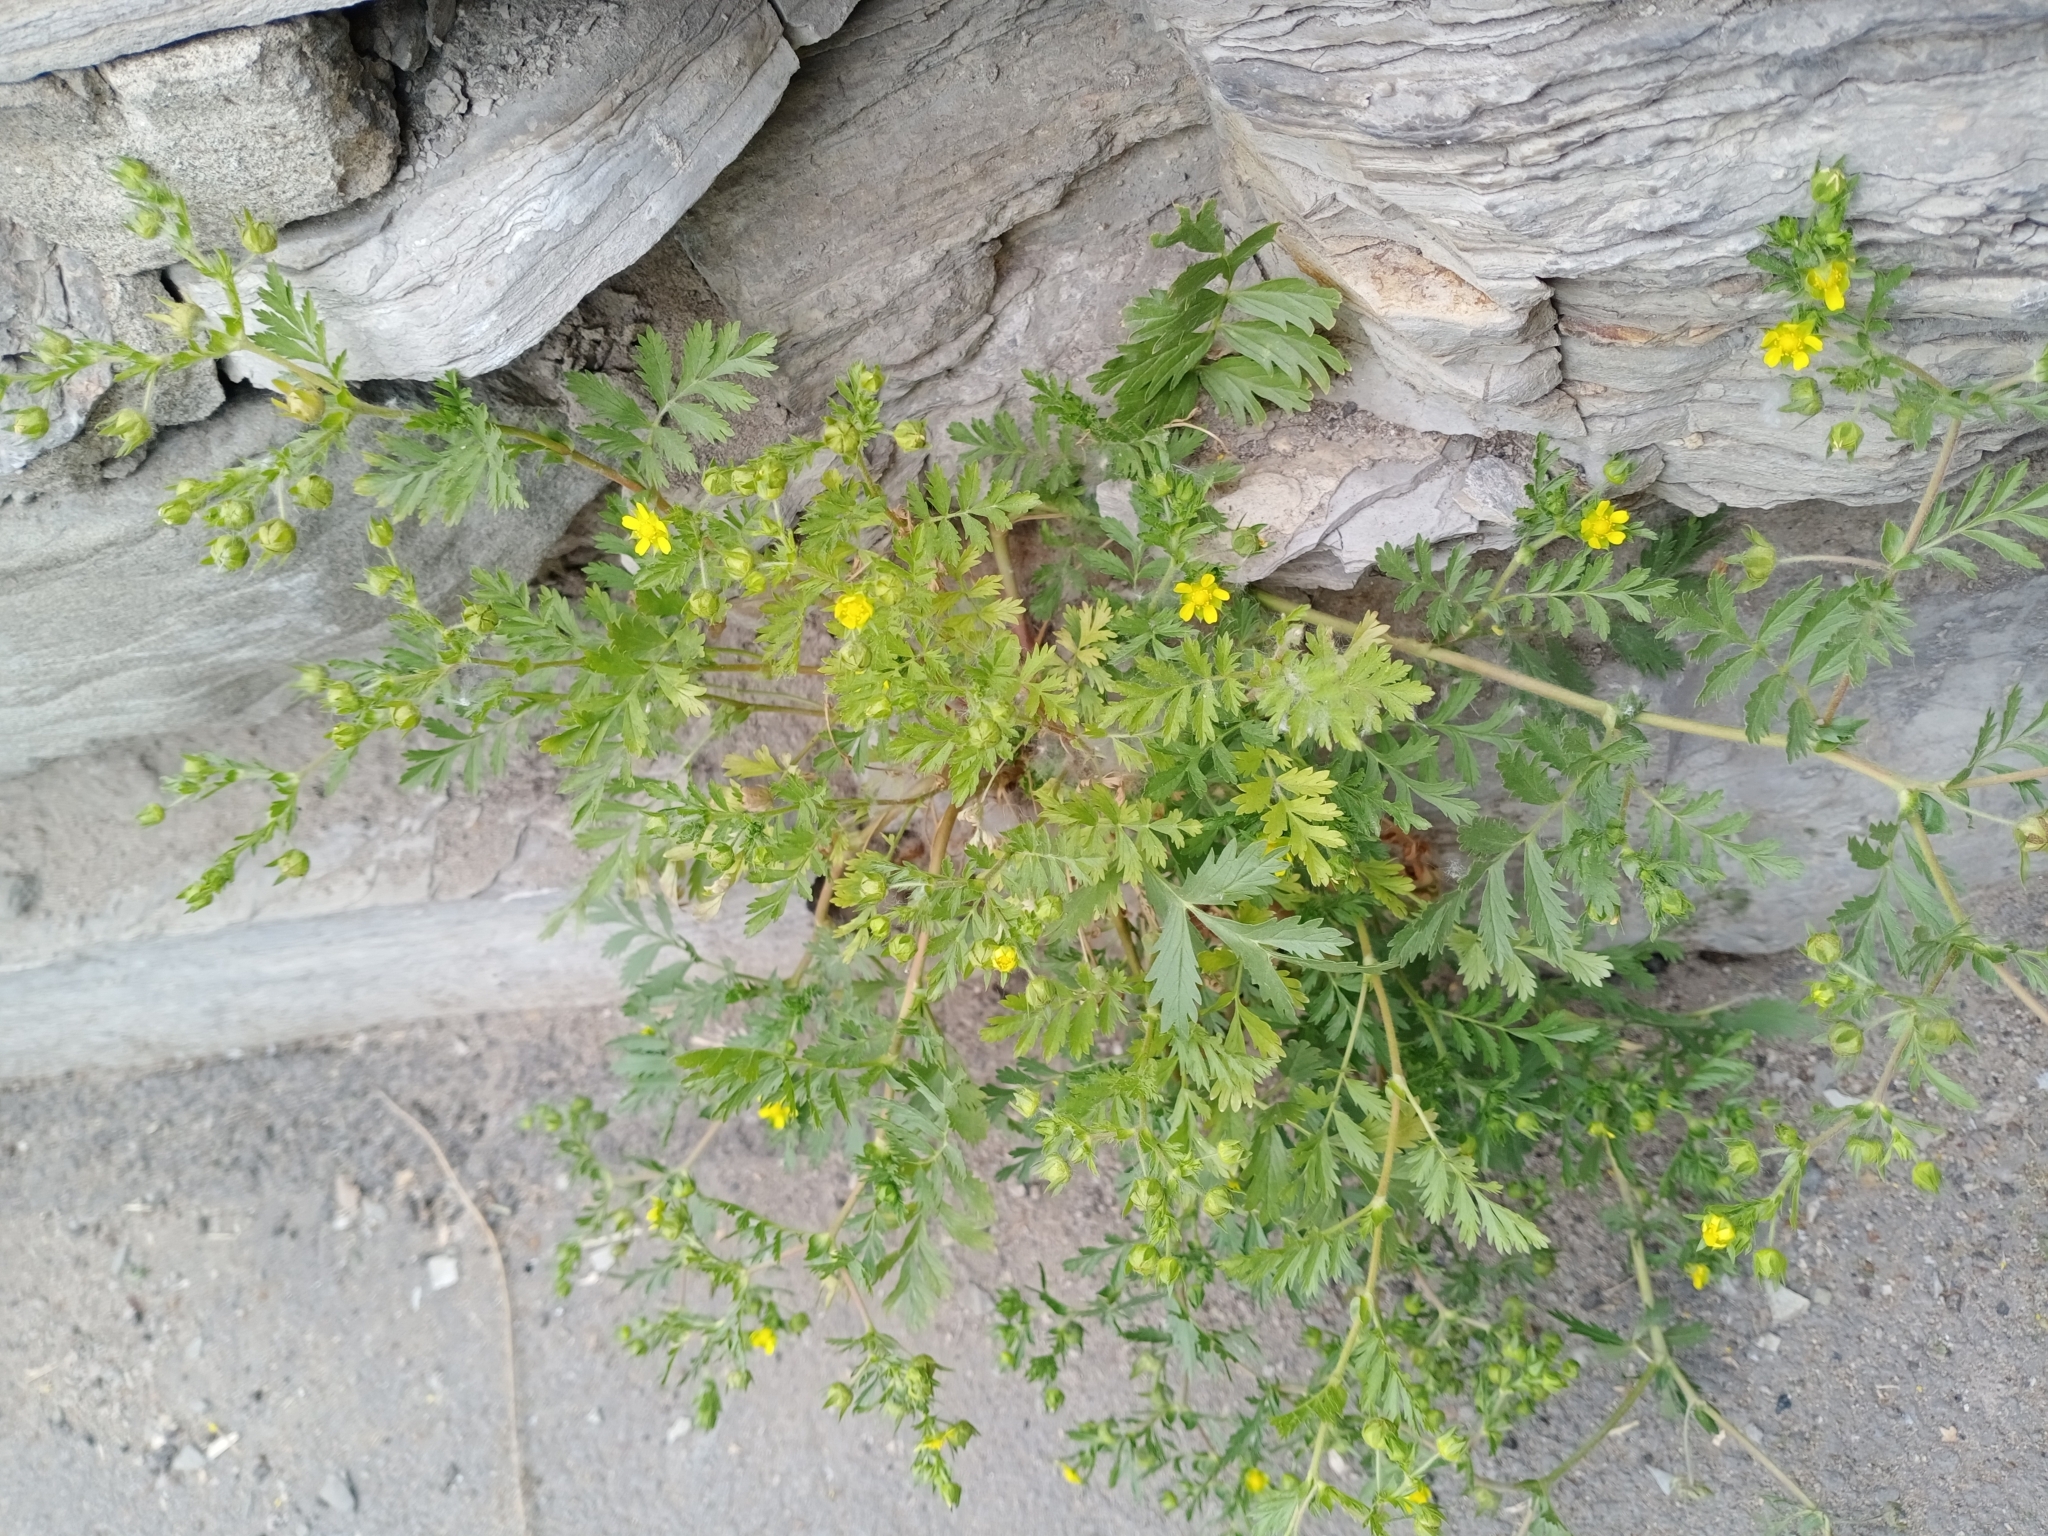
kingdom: Plantae
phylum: Tracheophyta
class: Magnoliopsida
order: Rosales
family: Rosaceae
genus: Potentilla
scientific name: Potentilla supina
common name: Prostrate cinquefoil
